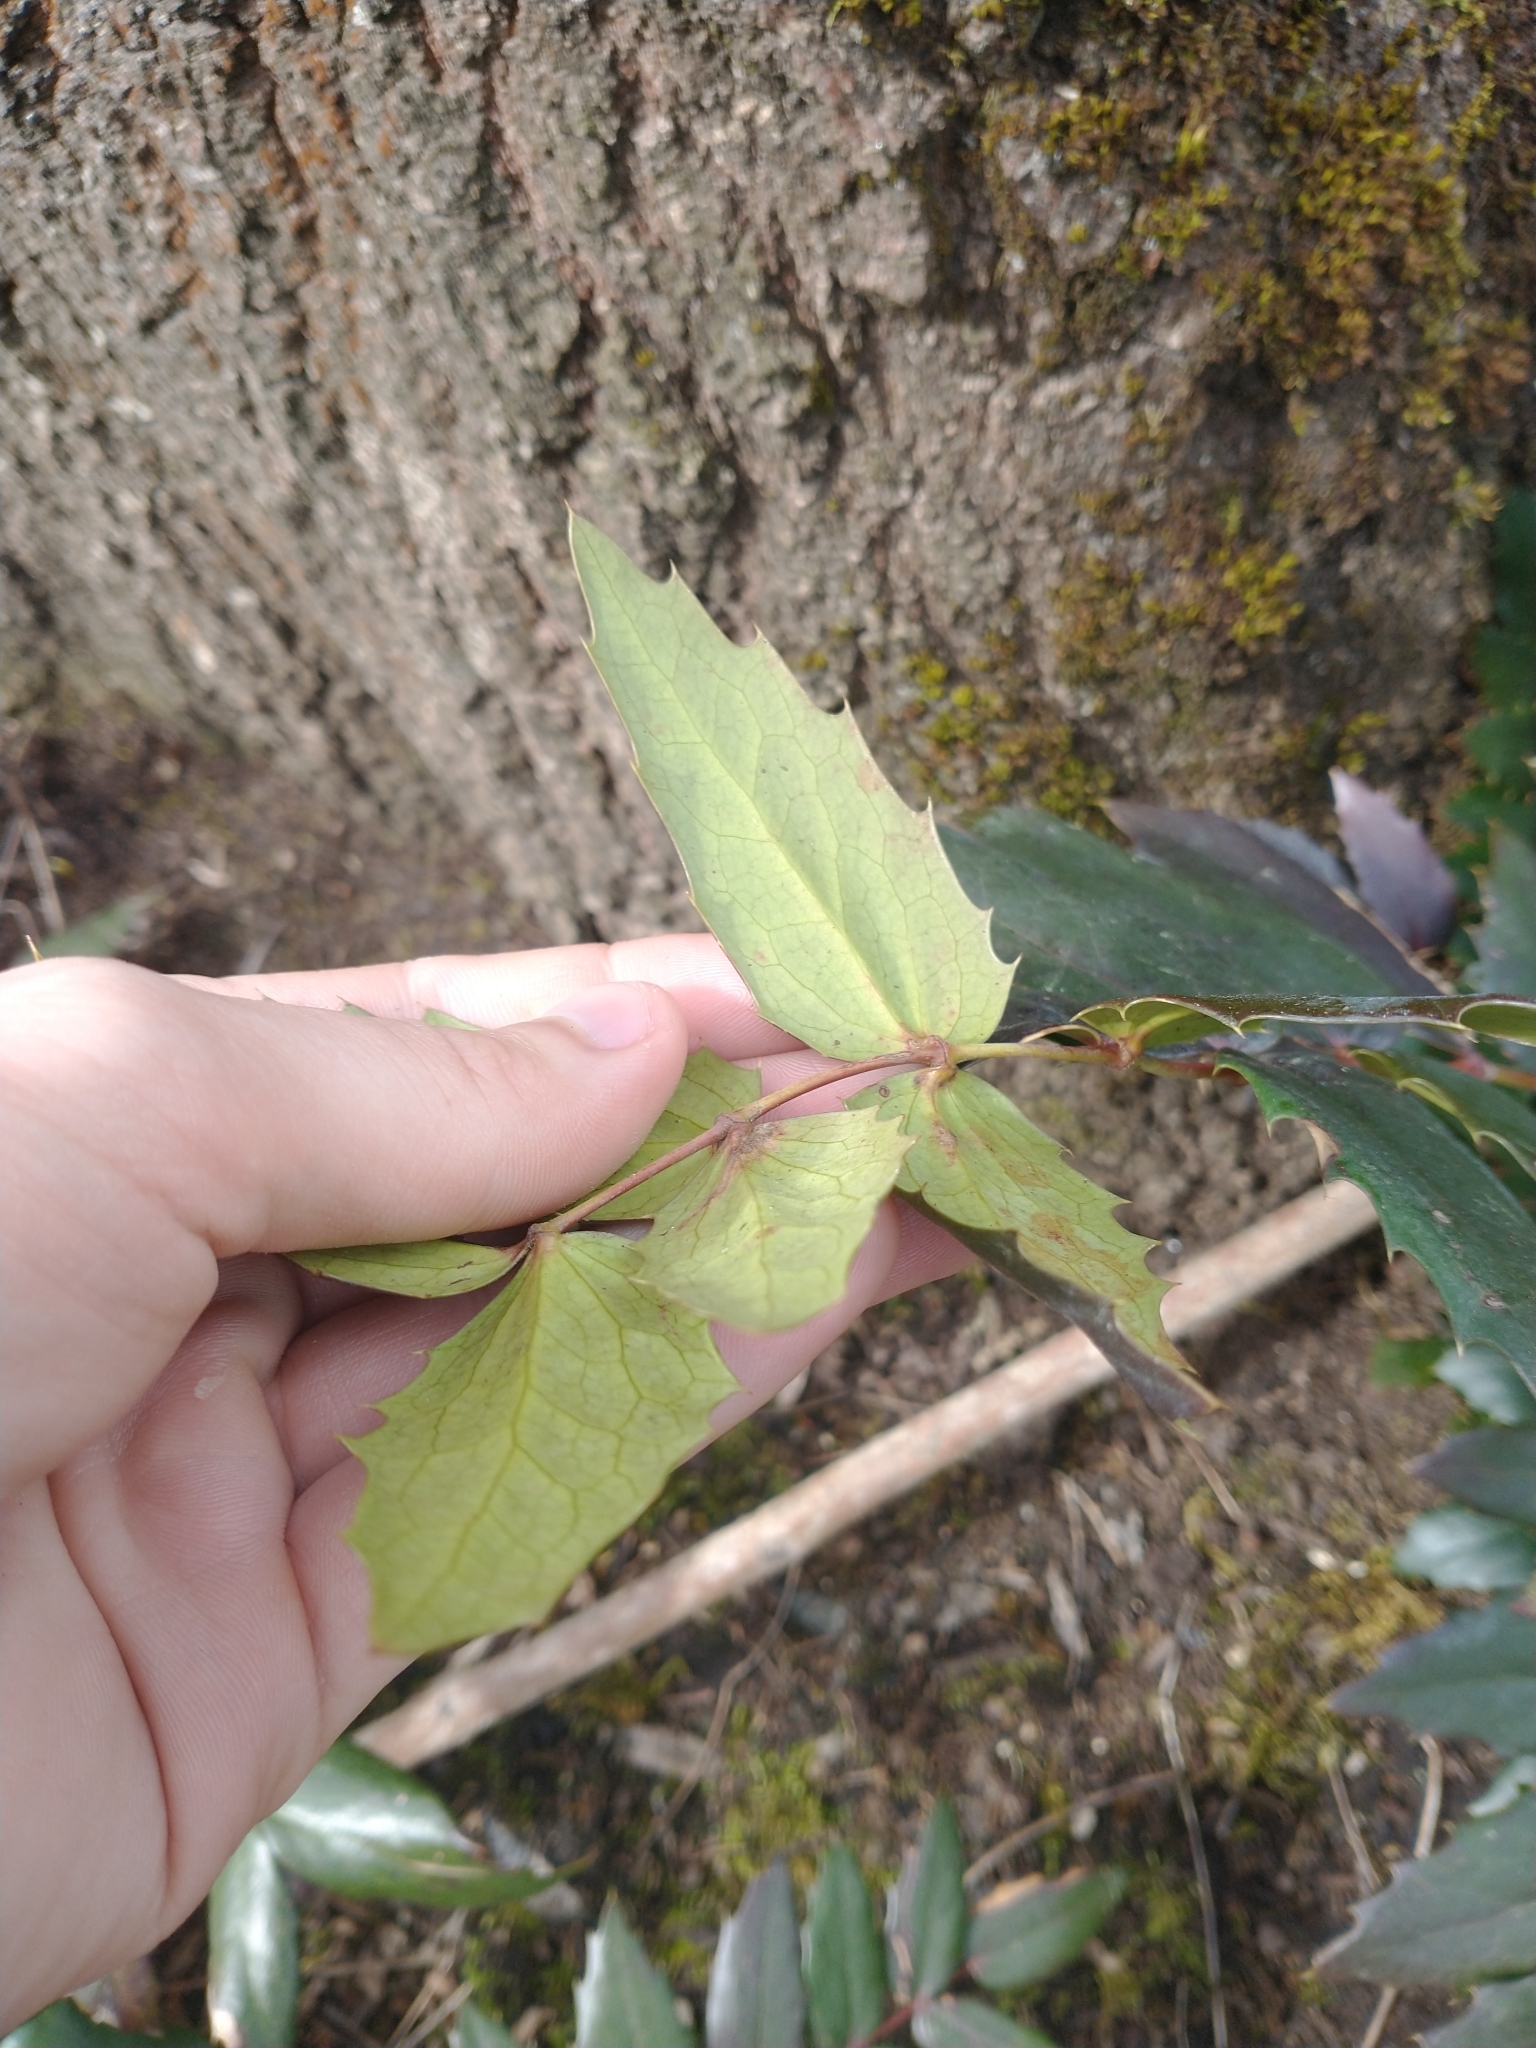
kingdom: Plantae
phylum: Tracheophyta
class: Magnoliopsida
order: Ranunculales
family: Berberidaceae
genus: Mahonia
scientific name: Mahonia nervosa
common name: Cascade oregon-grape
